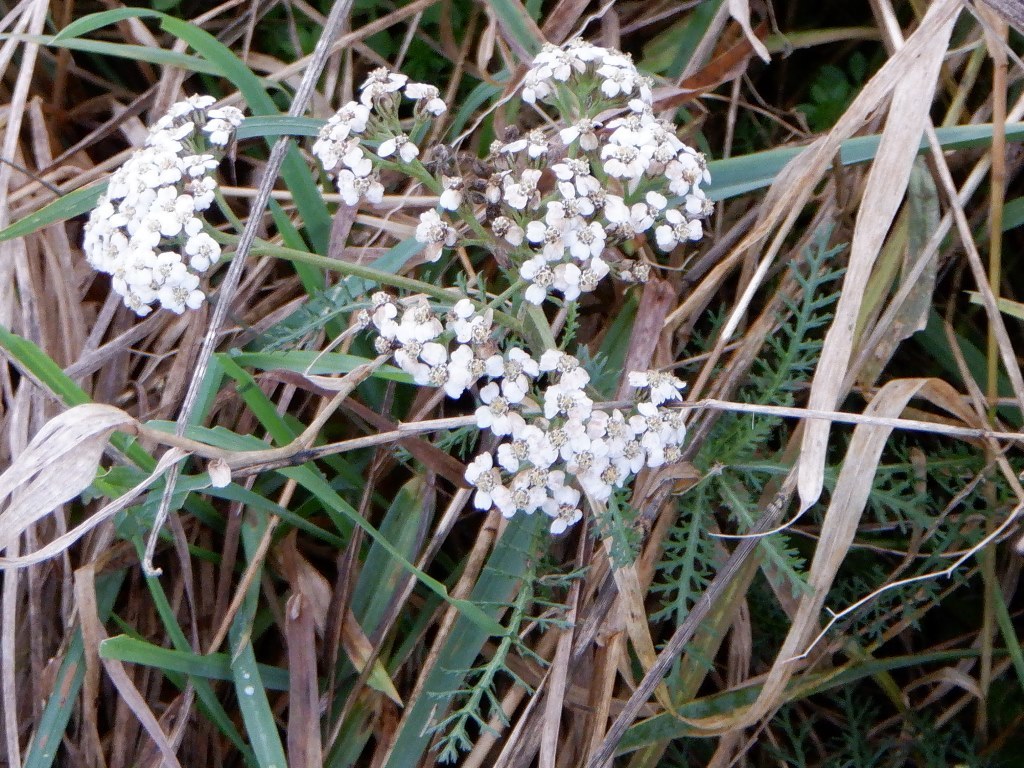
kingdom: Plantae
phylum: Tracheophyta
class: Magnoliopsida
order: Asterales
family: Asteraceae
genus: Achillea
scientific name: Achillea millefolium
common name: Yarrow
